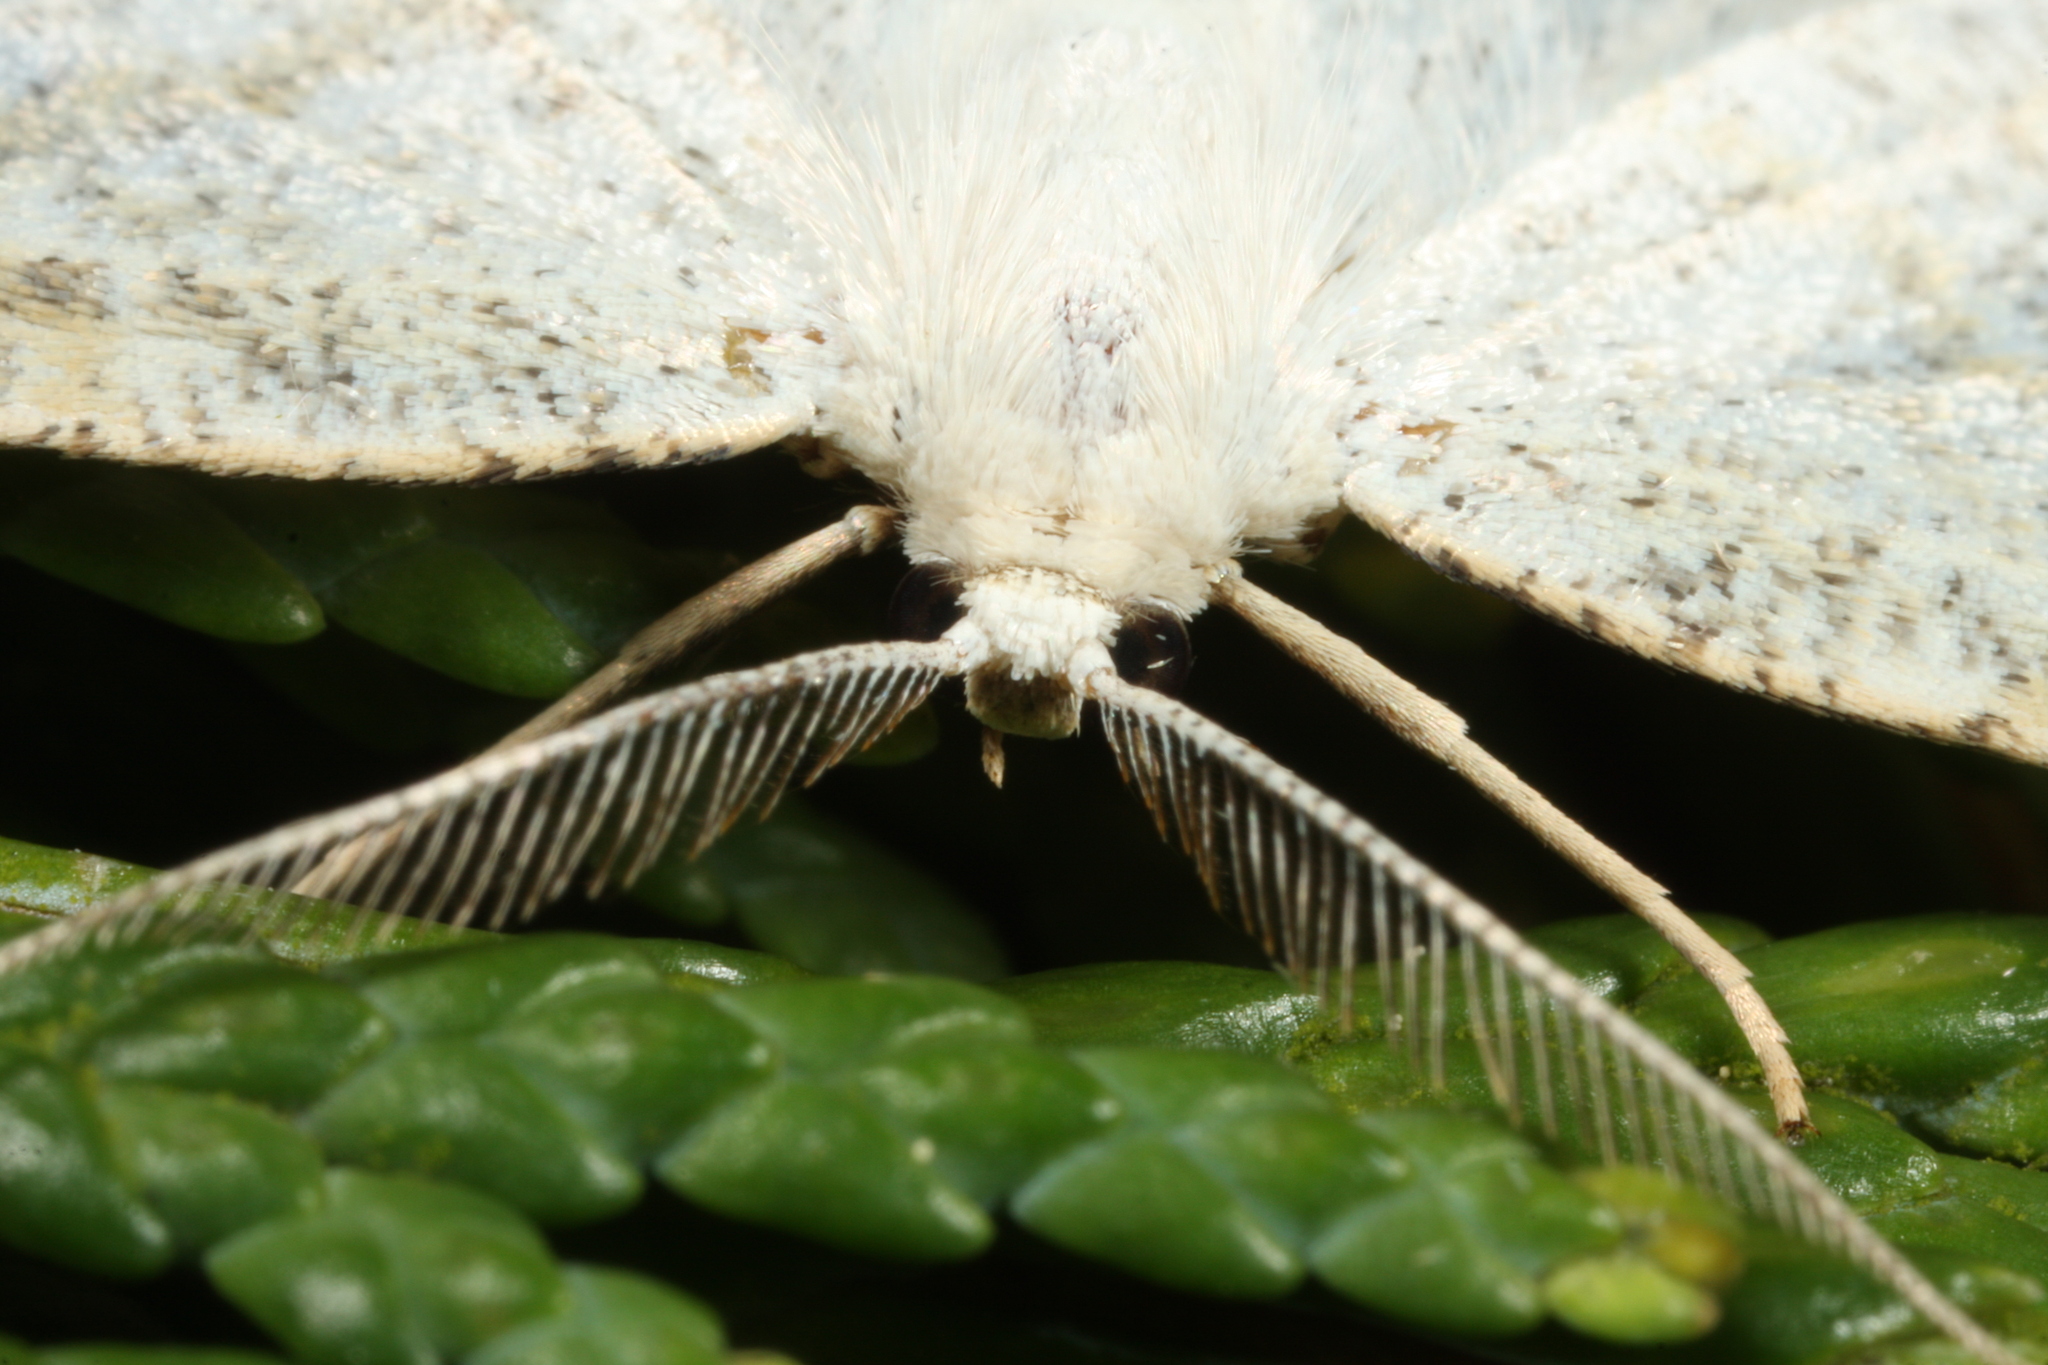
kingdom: Animalia
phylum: Arthropoda
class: Insecta
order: Lepidoptera
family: Geometridae
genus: Cabera
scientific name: Cabera exanthemata
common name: Common wave
